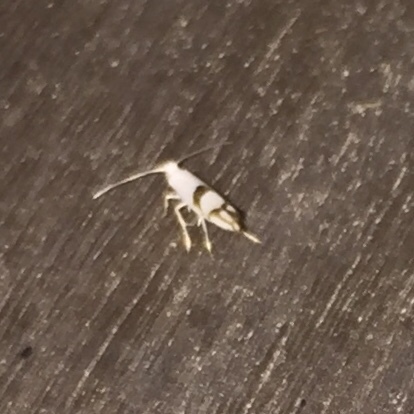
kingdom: Animalia
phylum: Arthropoda
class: Insecta
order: Lepidoptera
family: Argyresthiidae
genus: Argyresthia
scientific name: Argyresthia oreasella
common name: Cherry shoot borer moth
